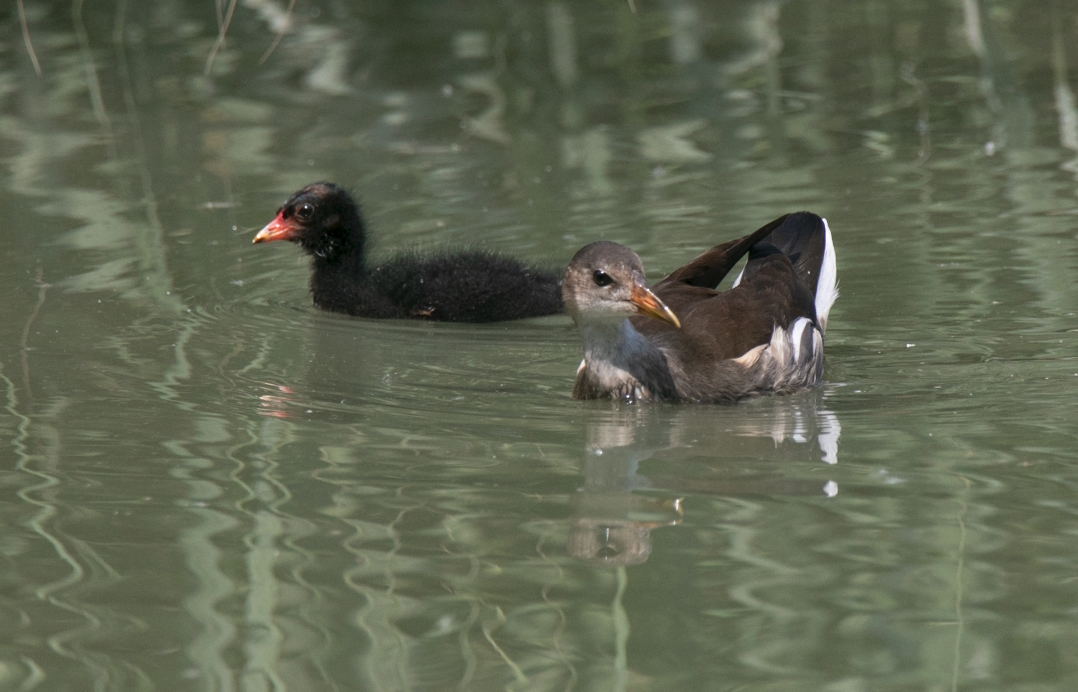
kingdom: Animalia
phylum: Chordata
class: Aves
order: Gruiformes
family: Rallidae
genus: Gallinula
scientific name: Gallinula chloropus
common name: Common moorhen
